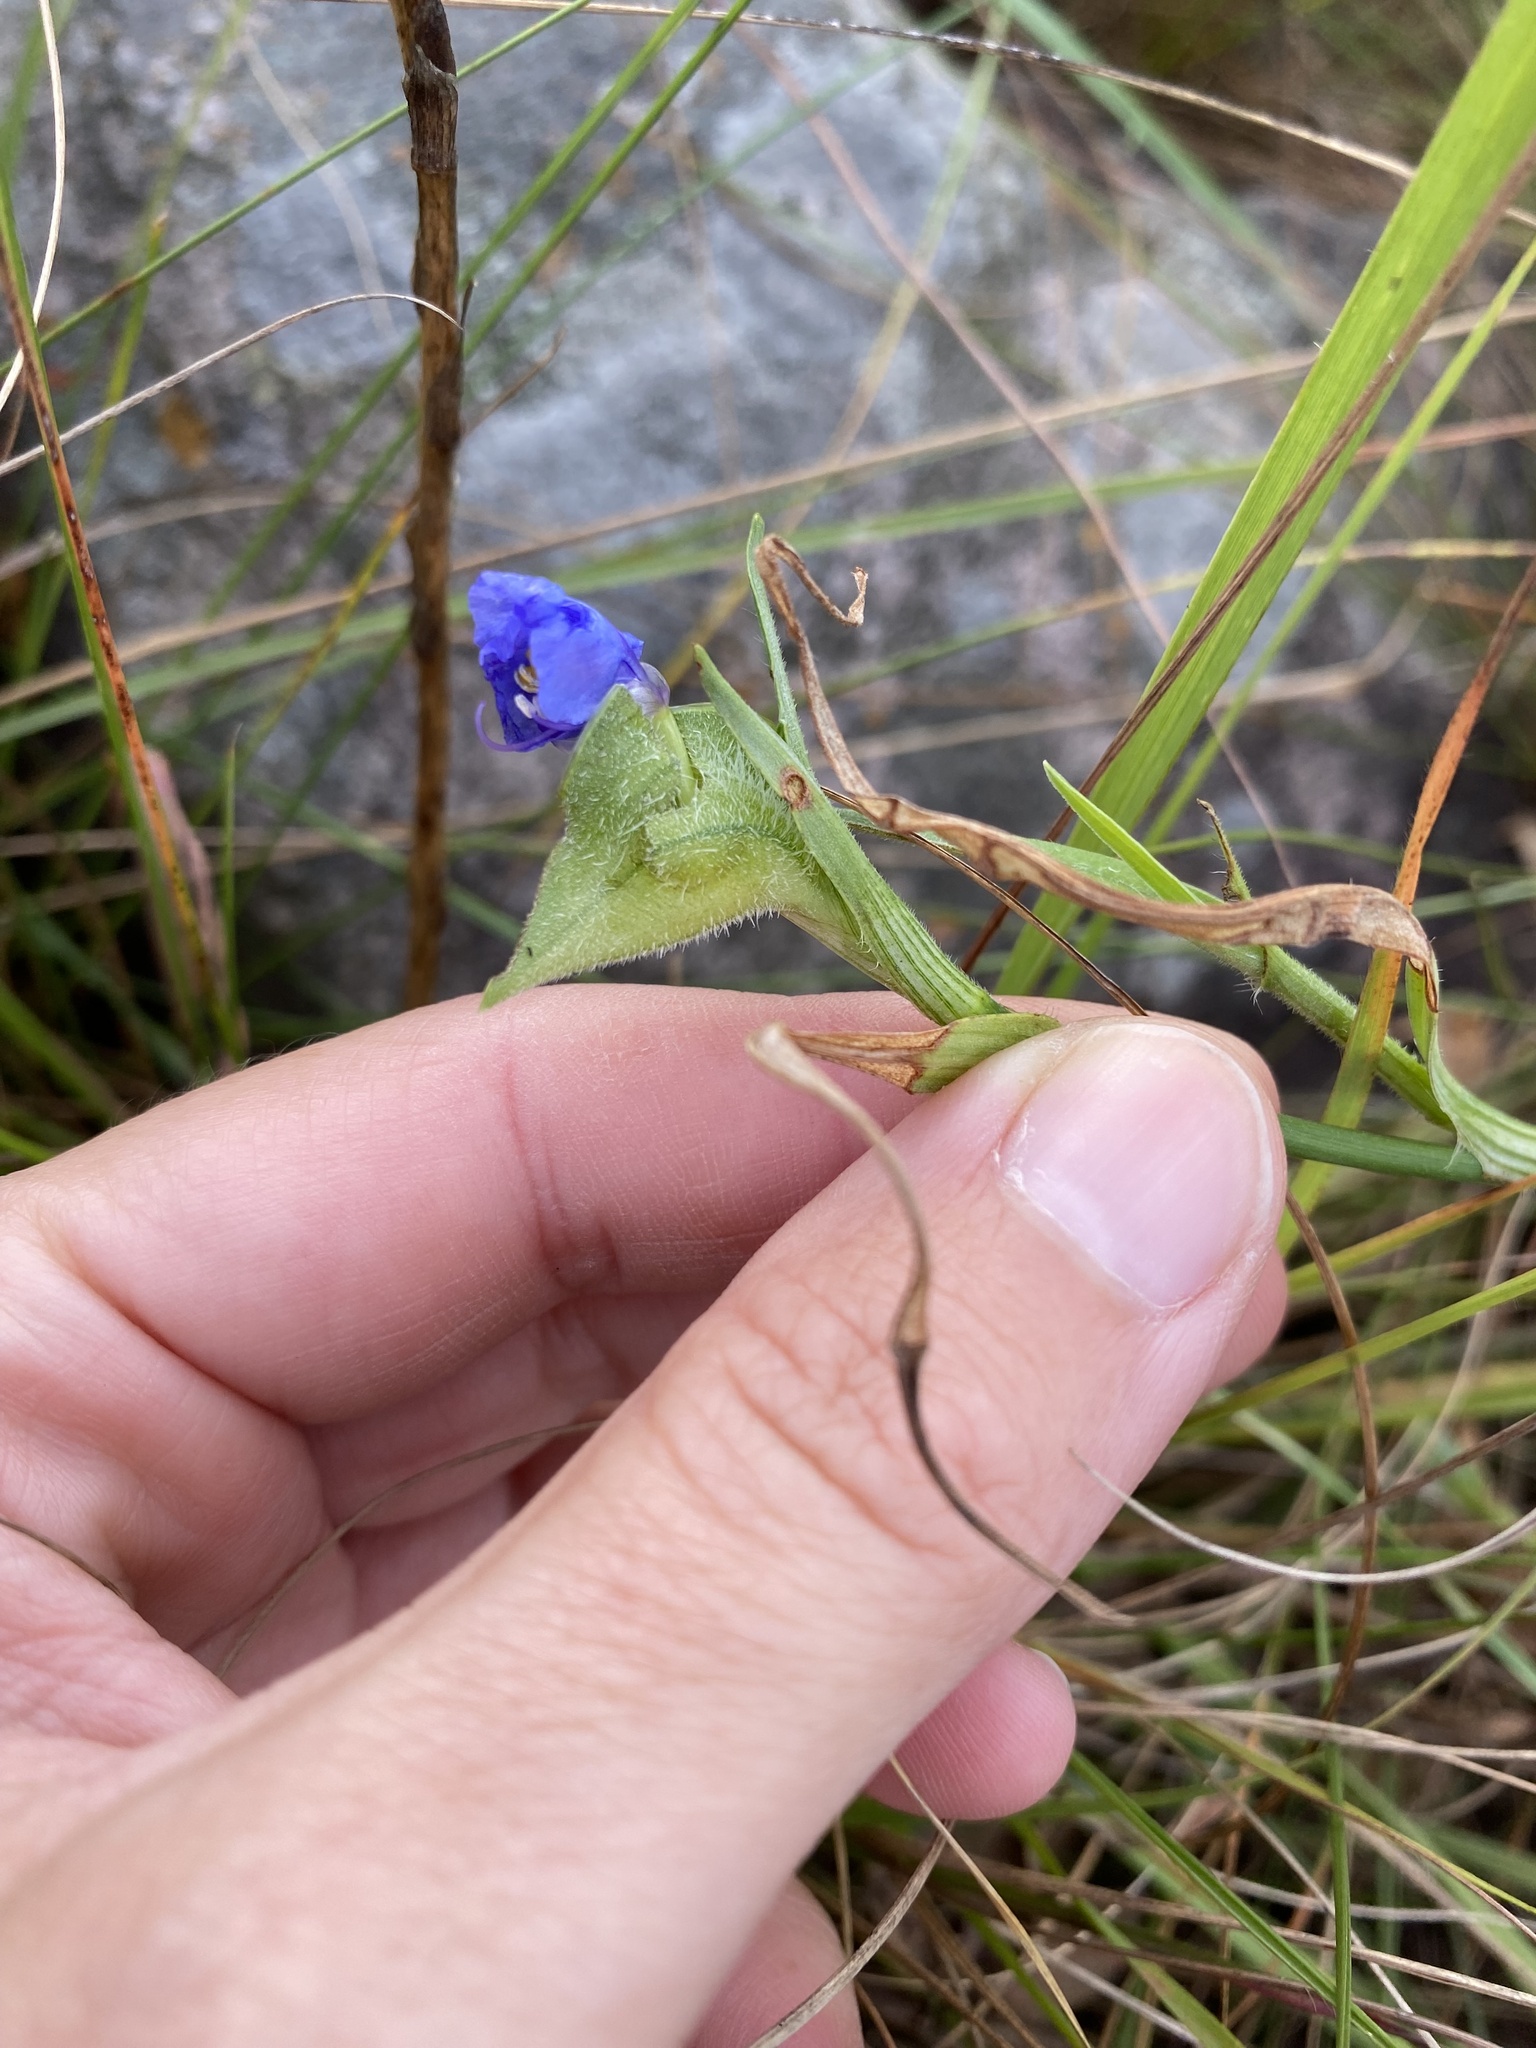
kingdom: Plantae
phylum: Tracheophyta
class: Liliopsida
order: Commelinales
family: Commelinaceae
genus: Commelina
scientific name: Commelina erecta
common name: Blousel blommetjie
